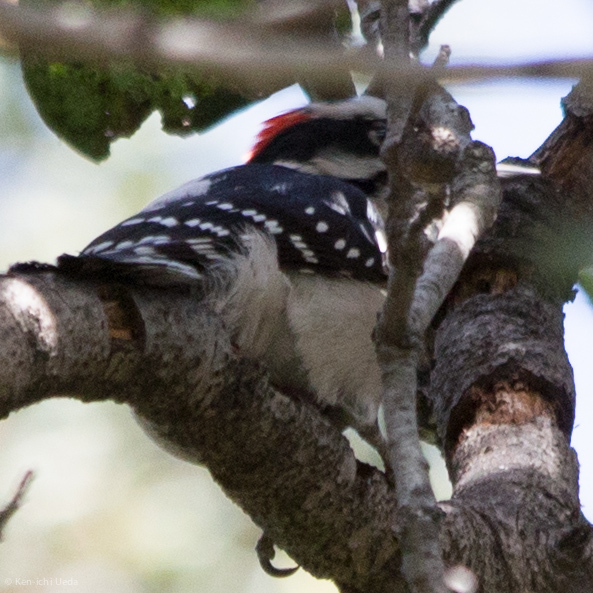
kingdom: Animalia
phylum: Chordata
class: Aves
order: Piciformes
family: Picidae
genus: Dryobates
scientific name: Dryobates pubescens
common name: Downy woodpecker
